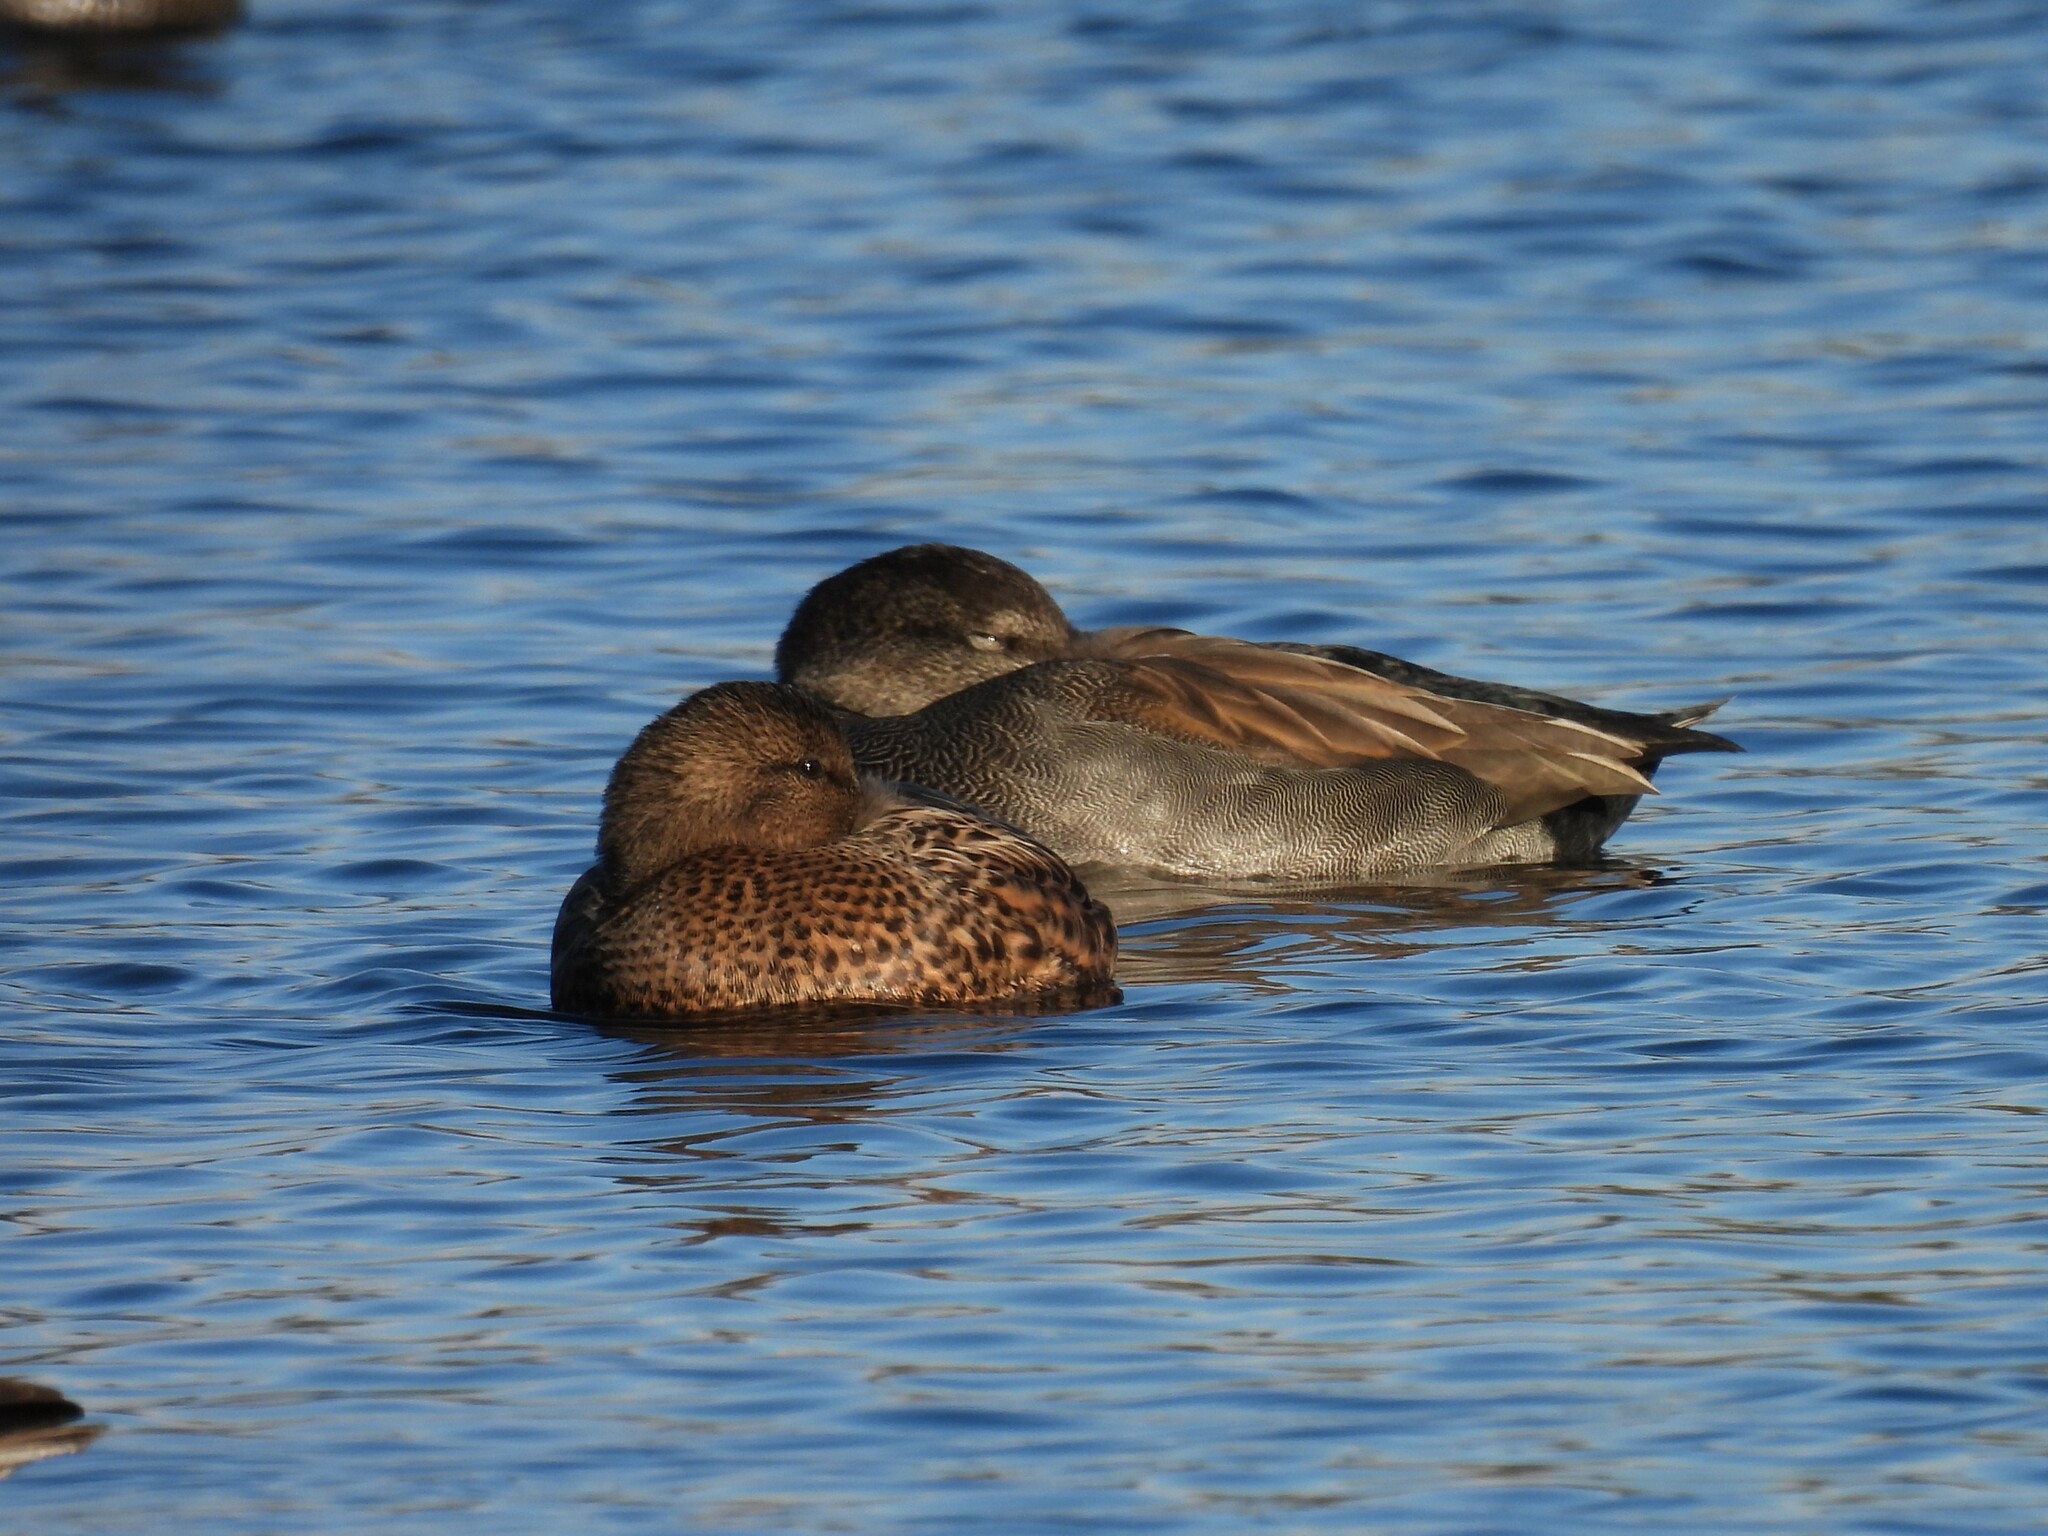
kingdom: Animalia
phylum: Chordata
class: Aves
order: Anseriformes
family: Anatidae
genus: Mareca
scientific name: Mareca strepera
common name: Gadwall
